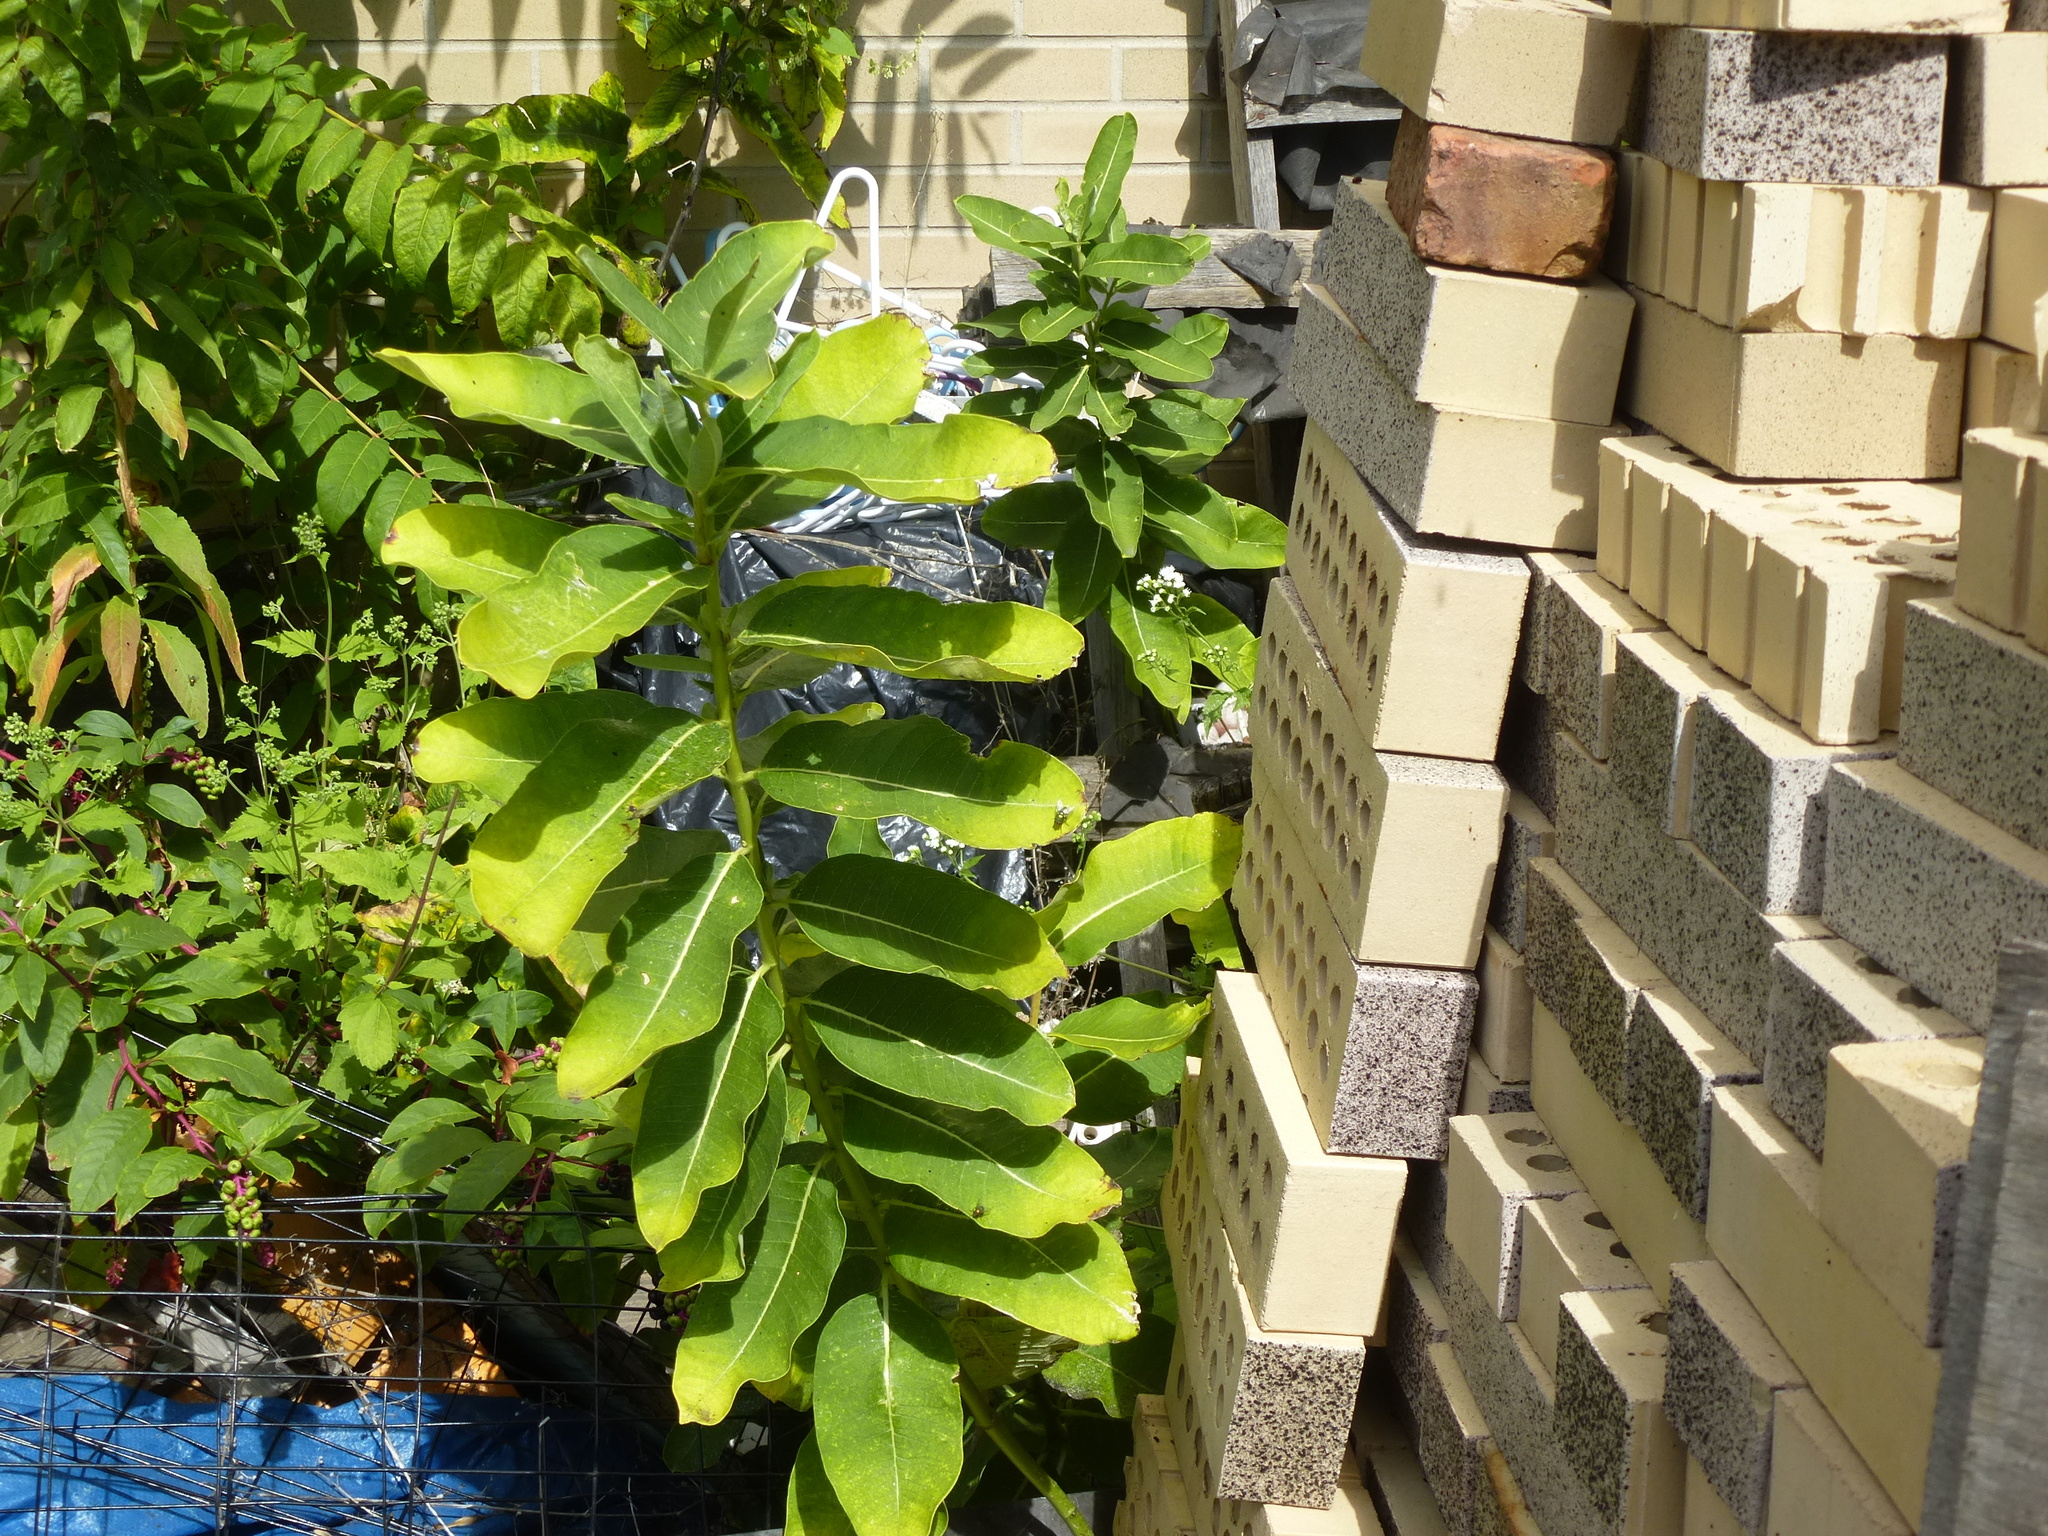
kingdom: Plantae
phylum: Tracheophyta
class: Magnoliopsida
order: Gentianales
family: Apocynaceae
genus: Asclepias
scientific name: Asclepias syriaca
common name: Common milkweed
